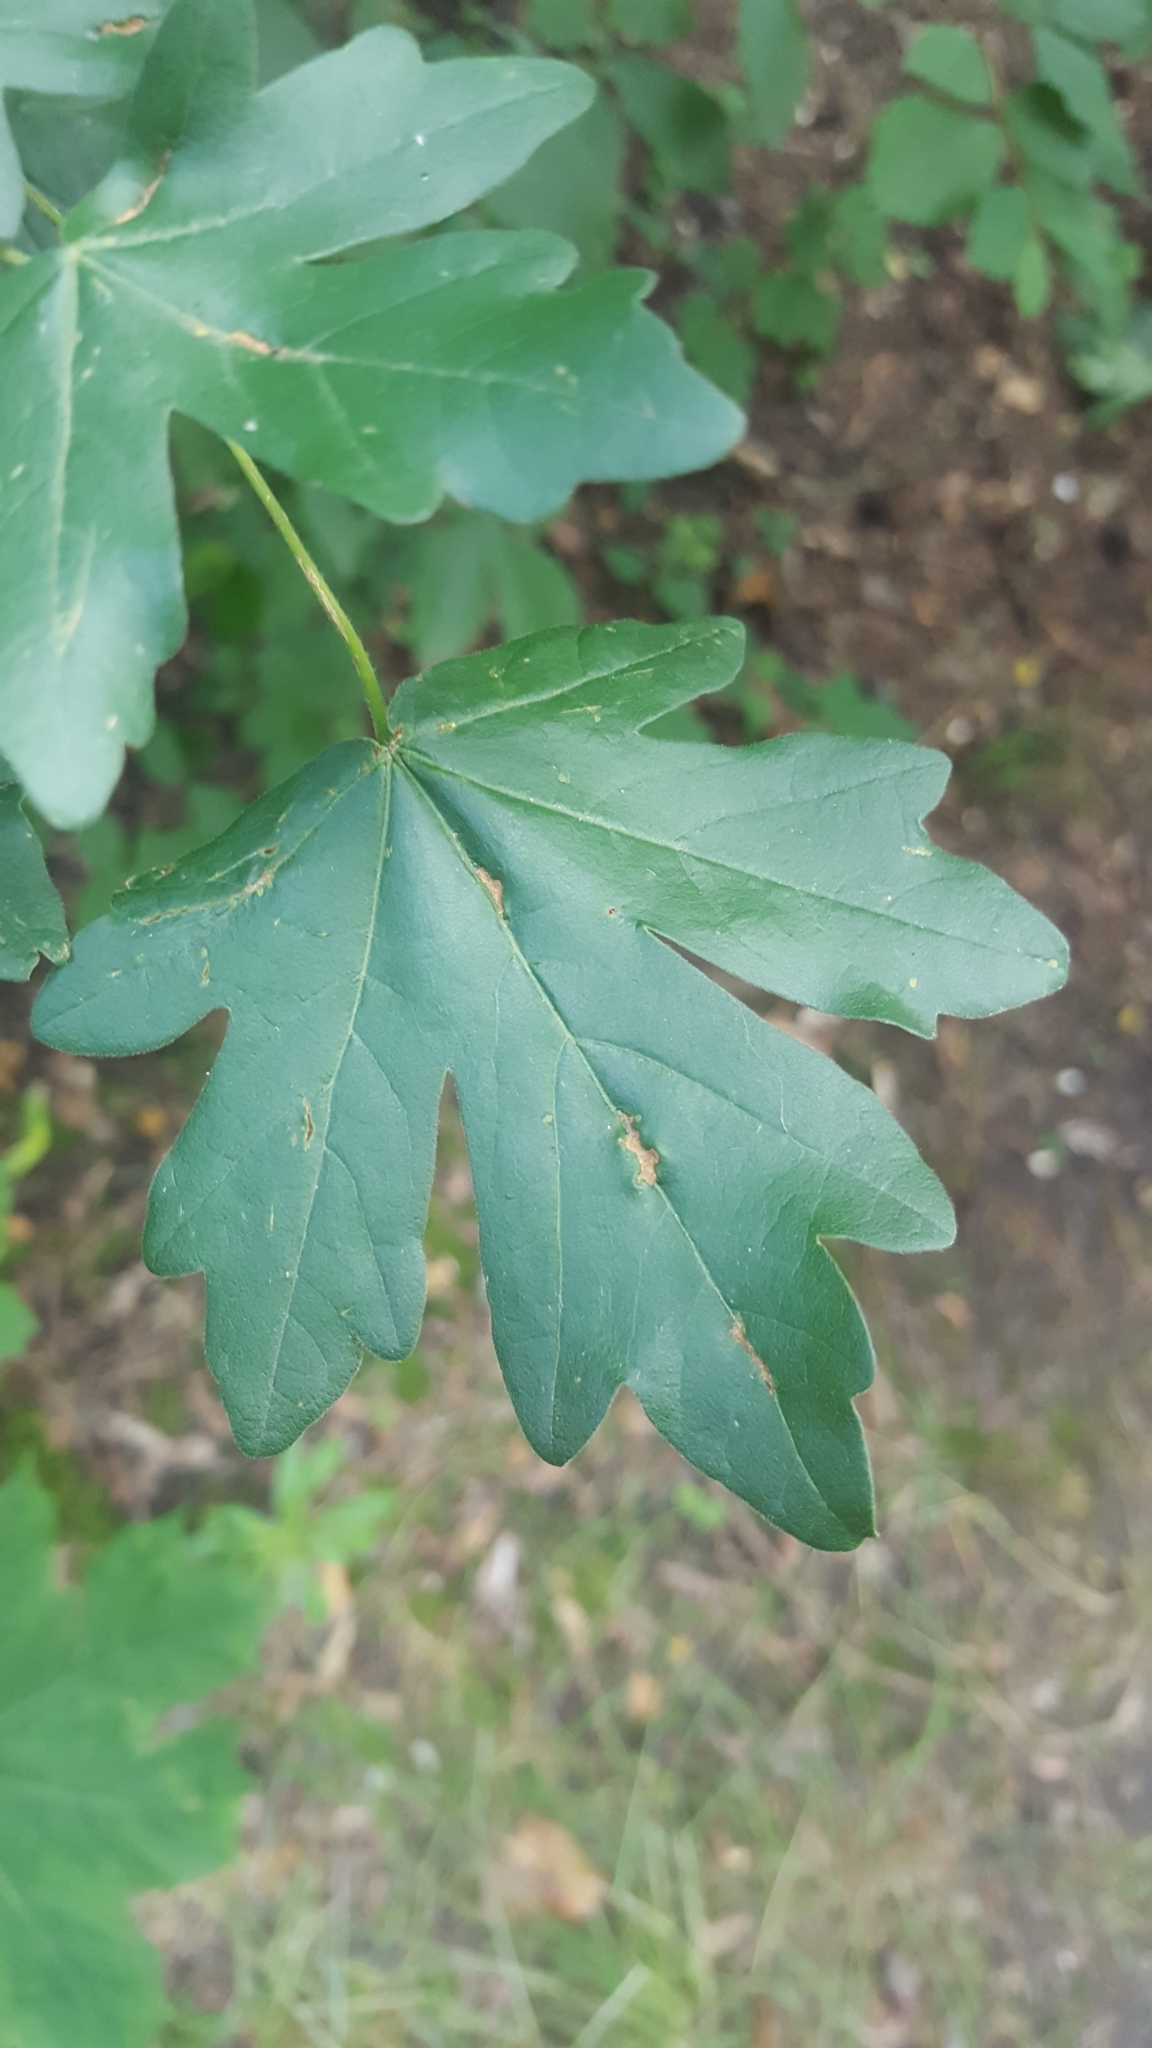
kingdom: Plantae
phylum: Tracheophyta
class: Magnoliopsida
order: Sapindales
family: Sapindaceae
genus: Acer
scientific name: Acer campestre
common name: Field maple
